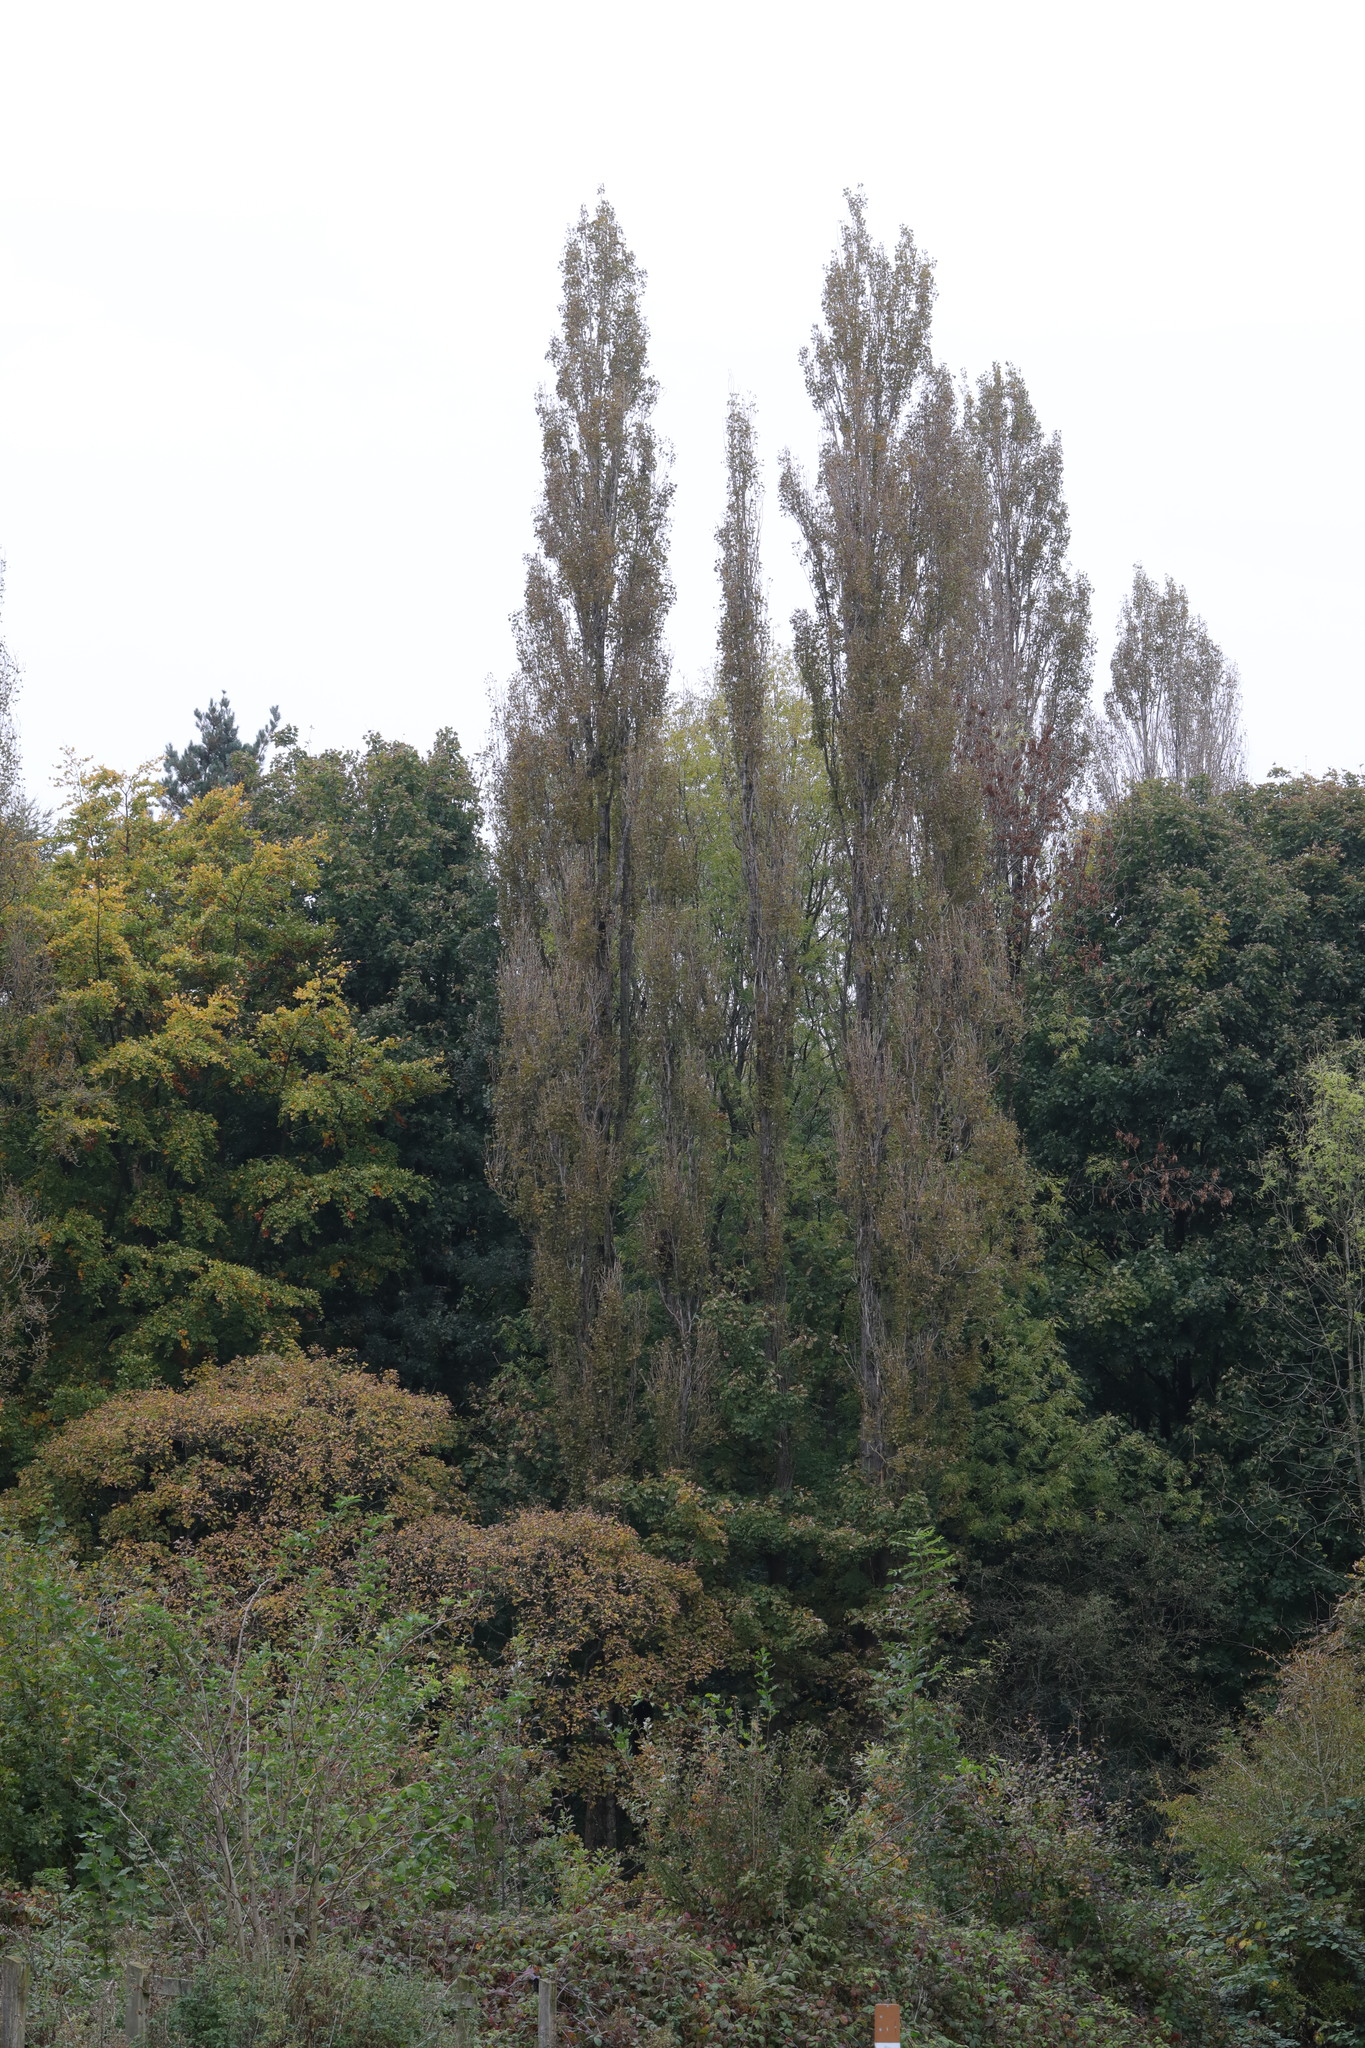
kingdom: Plantae
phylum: Tracheophyta
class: Magnoliopsida
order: Malpighiales
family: Salicaceae
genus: Populus
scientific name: Populus nigra
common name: Black poplar
